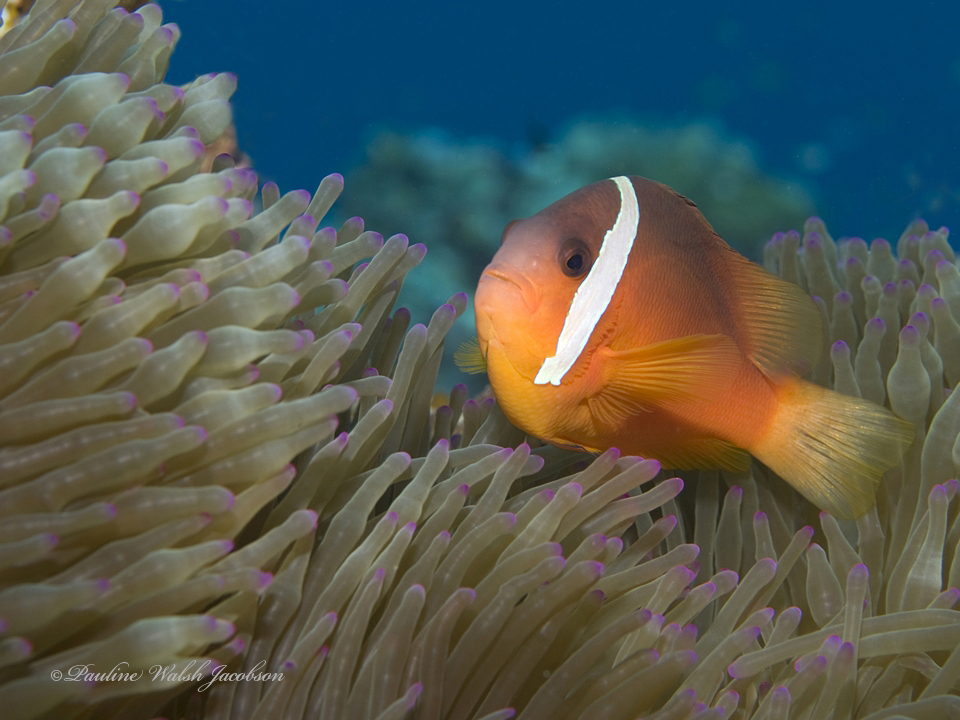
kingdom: Animalia
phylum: Chordata
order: Perciformes
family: Pomacentridae
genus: Amphiprion
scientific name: Amphiprion barberi
